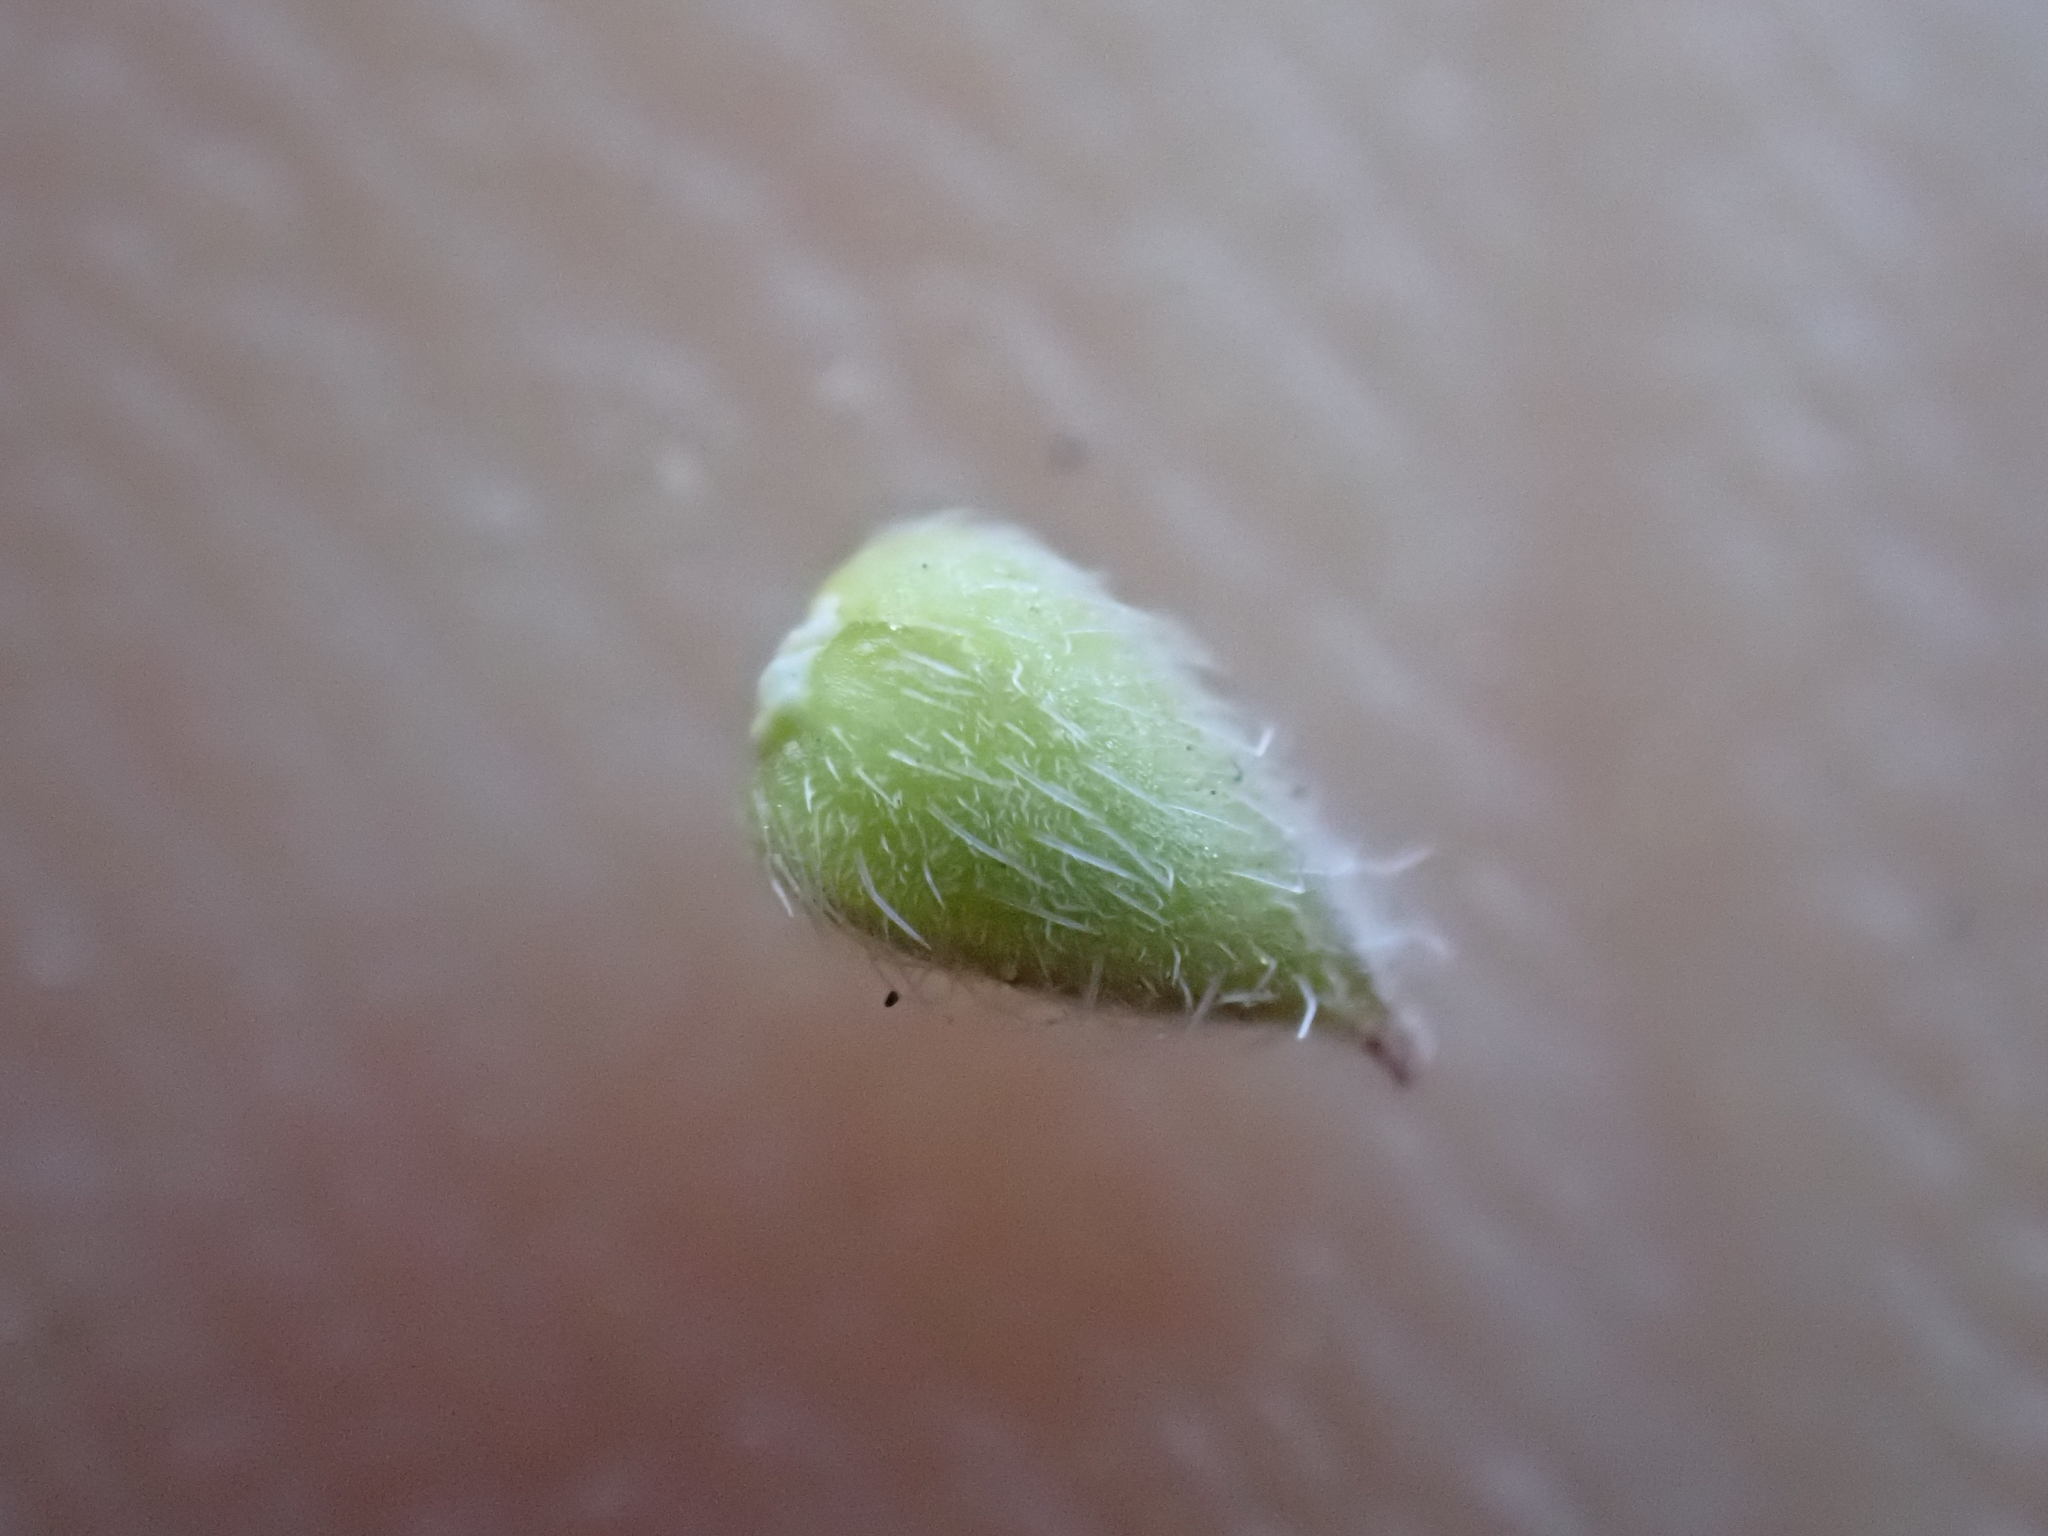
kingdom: Plantae
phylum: Tracheophyta
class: Magnoliopsida
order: Boraginales
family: Hydrophyllaceae
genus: Phacelia
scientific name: Phacelia breweri
